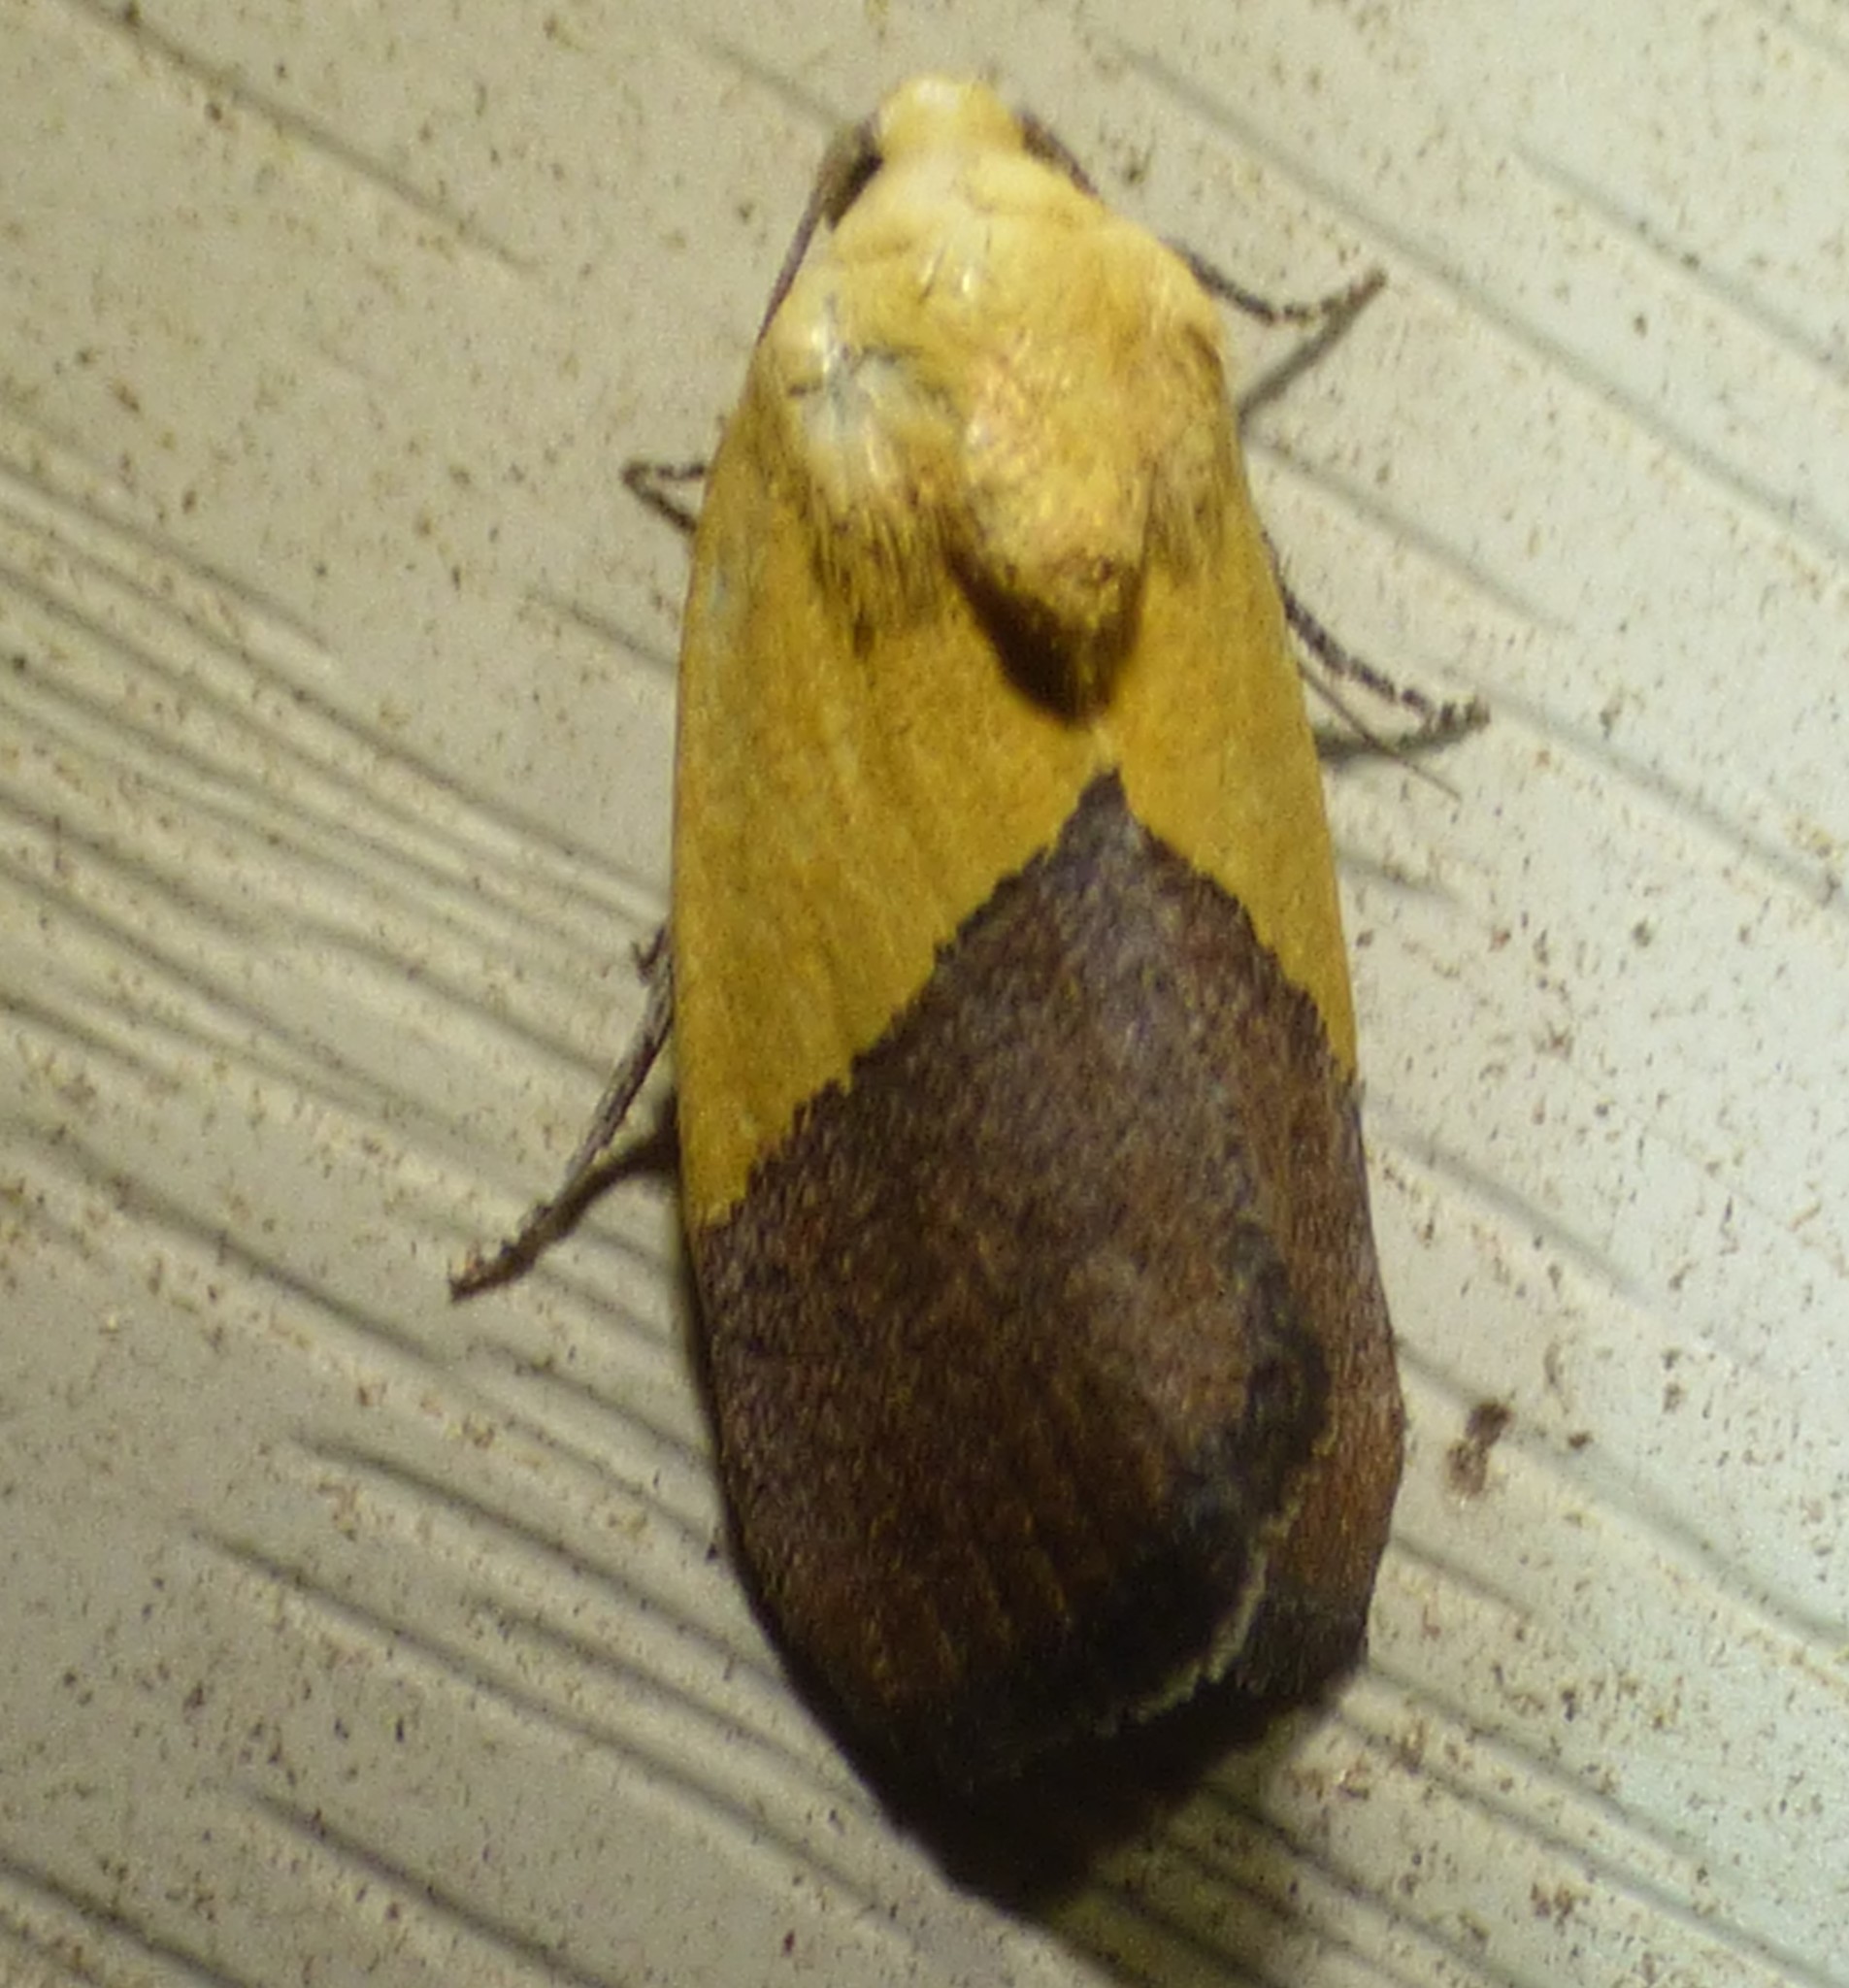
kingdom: Animalia
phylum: Arthropoda
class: Insecta
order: Lepidoptera
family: Noctuidae
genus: Acontia
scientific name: Acontia semiflava
